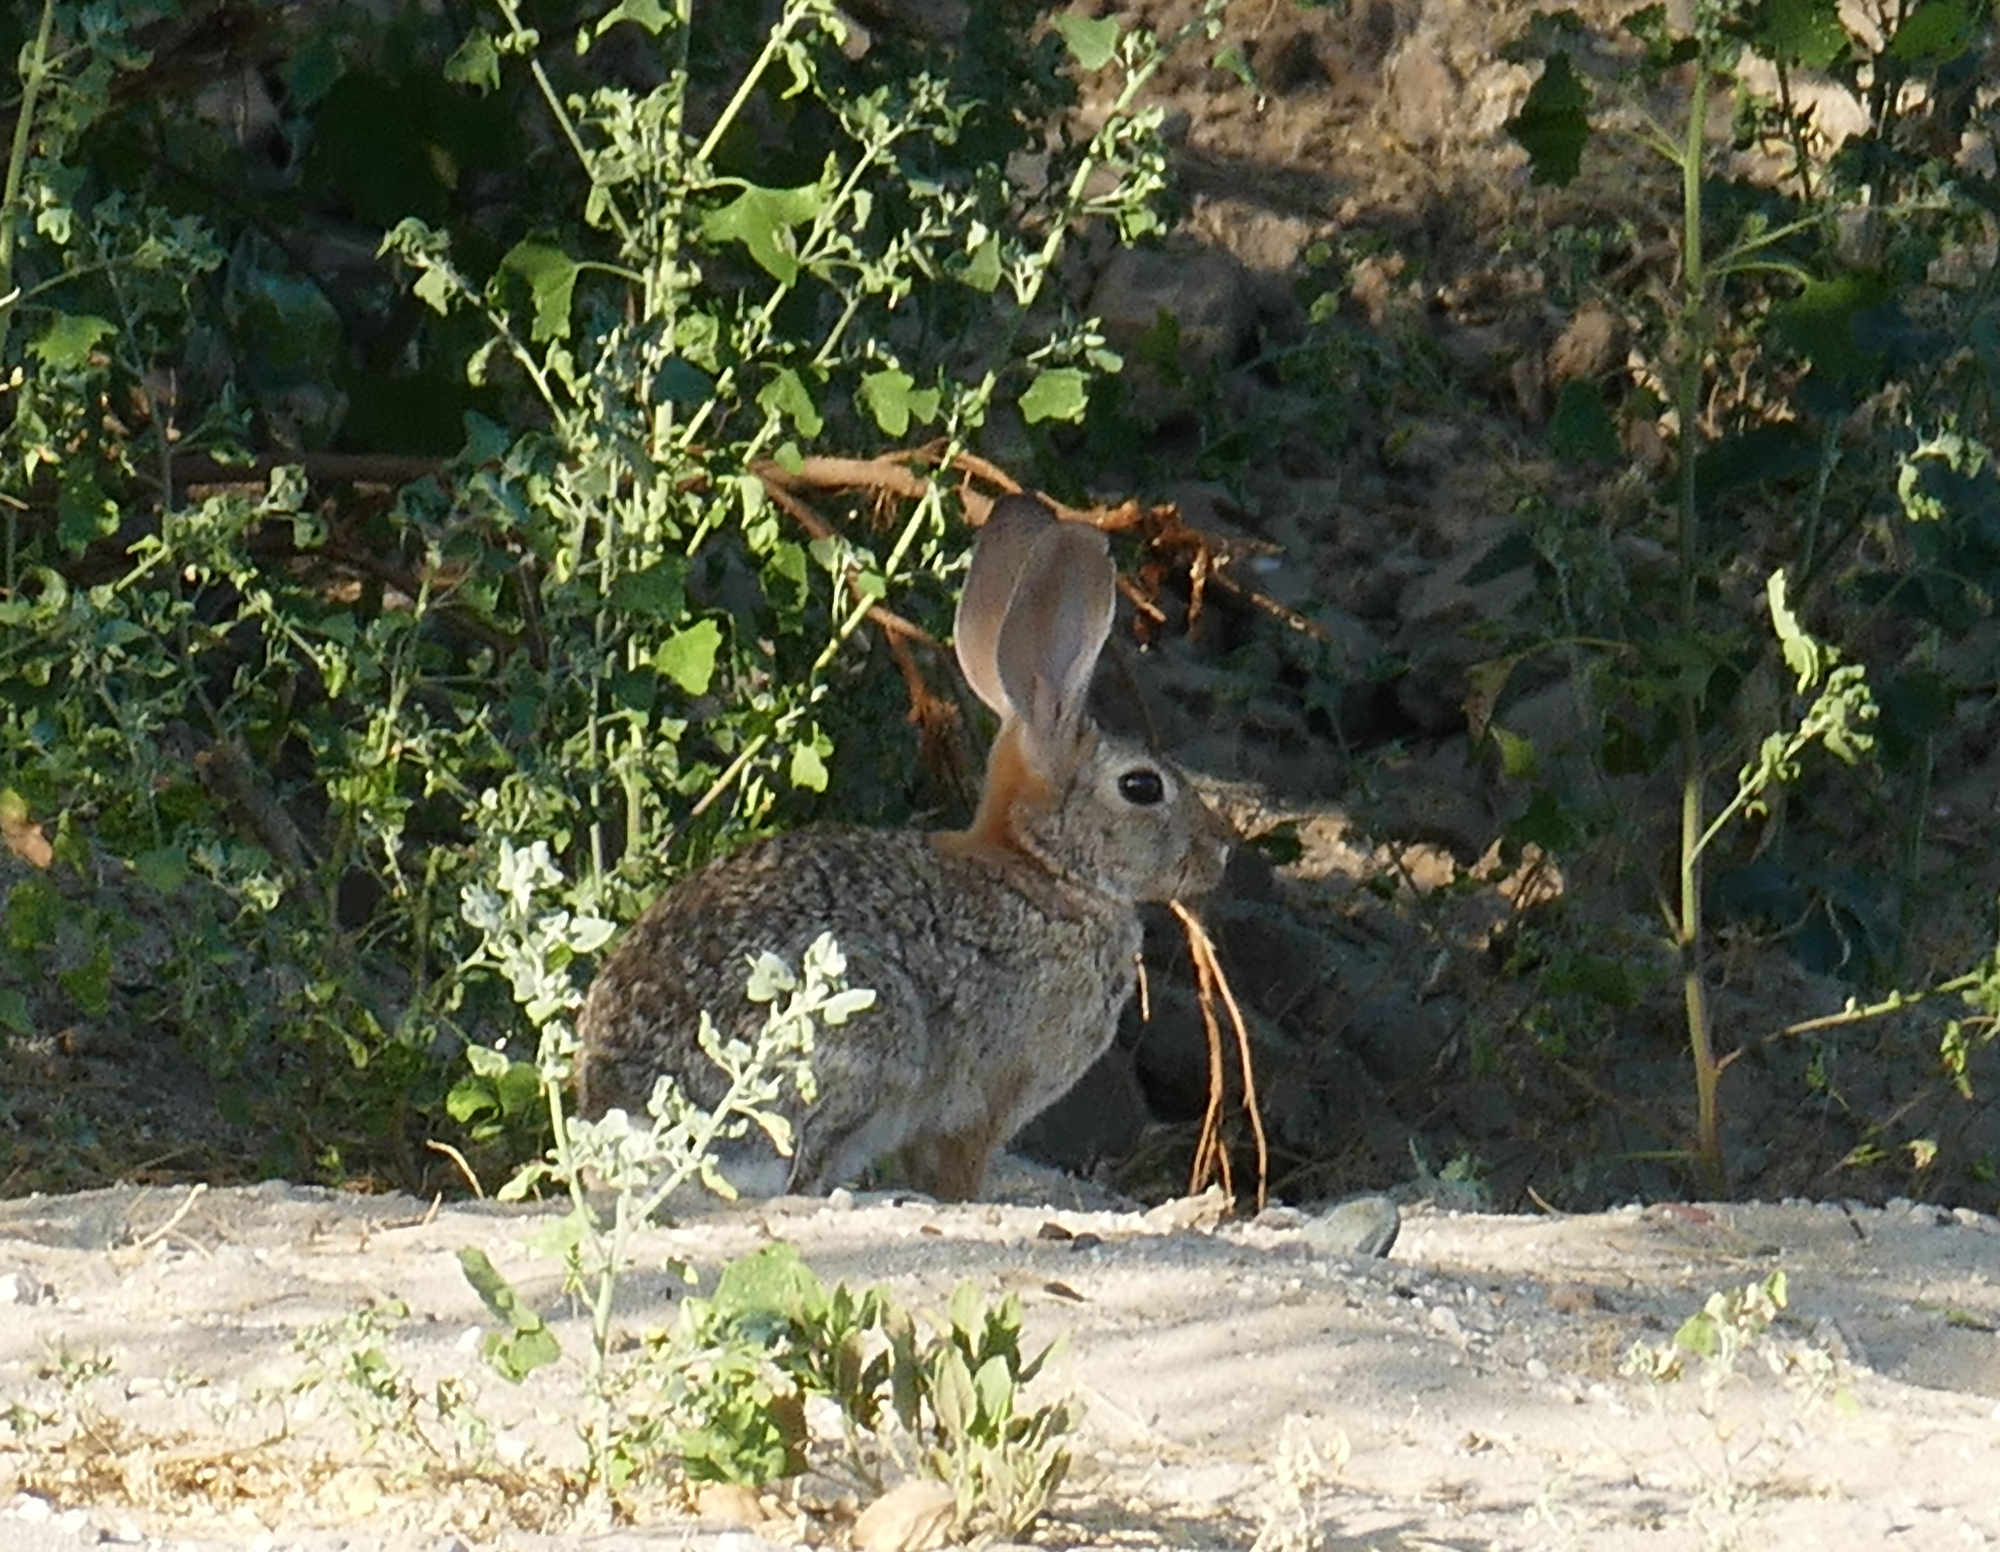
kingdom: Animalia
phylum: Chordata
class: Mammalia
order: Lagomorpha
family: Leporidae
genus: Sylvilagus
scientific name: Sylvilagus audubonii
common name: Desert cottontail
